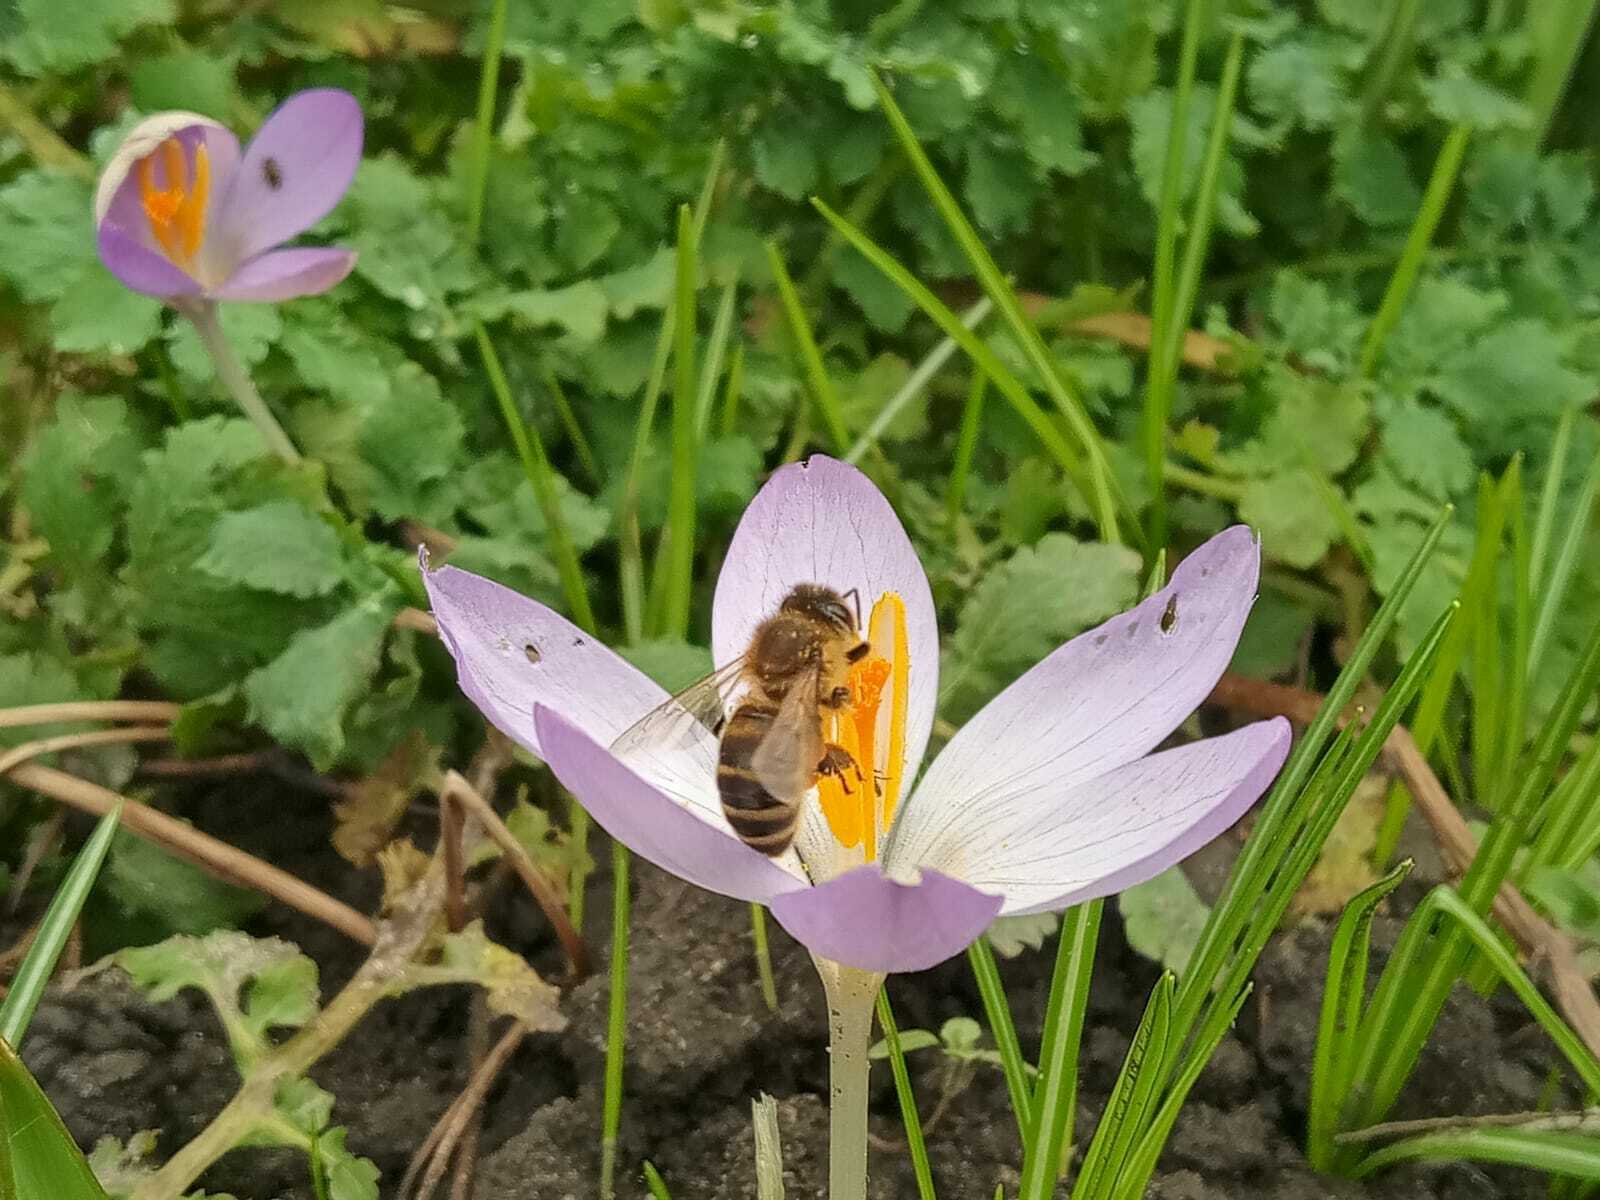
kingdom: Animalia
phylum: Arthropoda
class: Insecta
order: Hymenoptera
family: Apidae
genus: Apis
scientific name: Apis mellifera
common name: Honey bee
